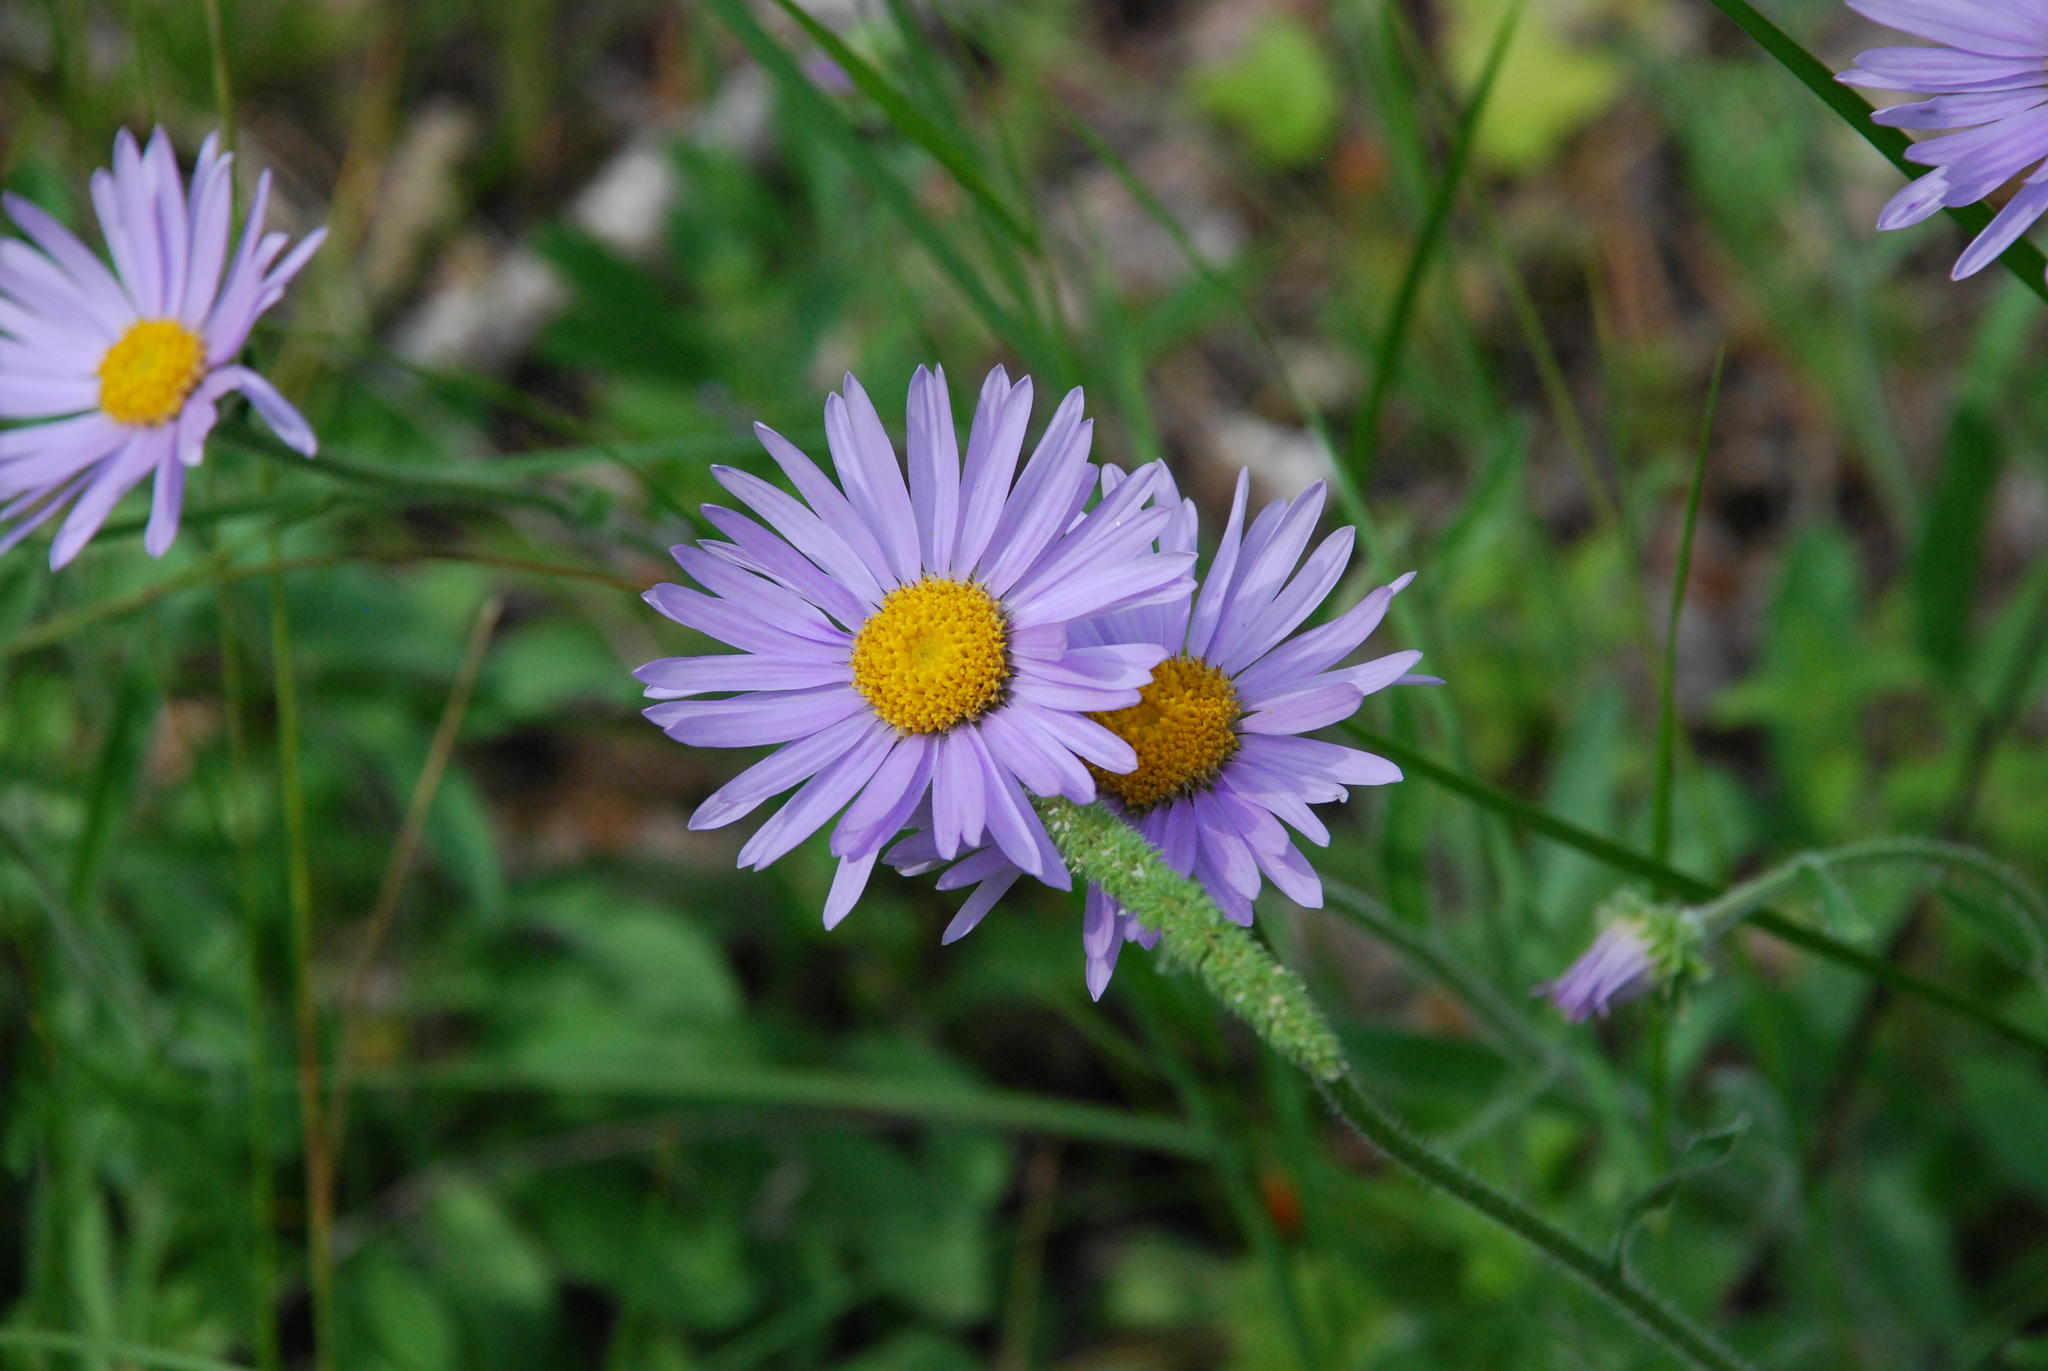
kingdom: Plantae
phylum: Tracheophyta
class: Magnoliopsida
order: Asterales
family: Asteraceae
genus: Aster
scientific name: Aster alpinus
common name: Alpine aster
